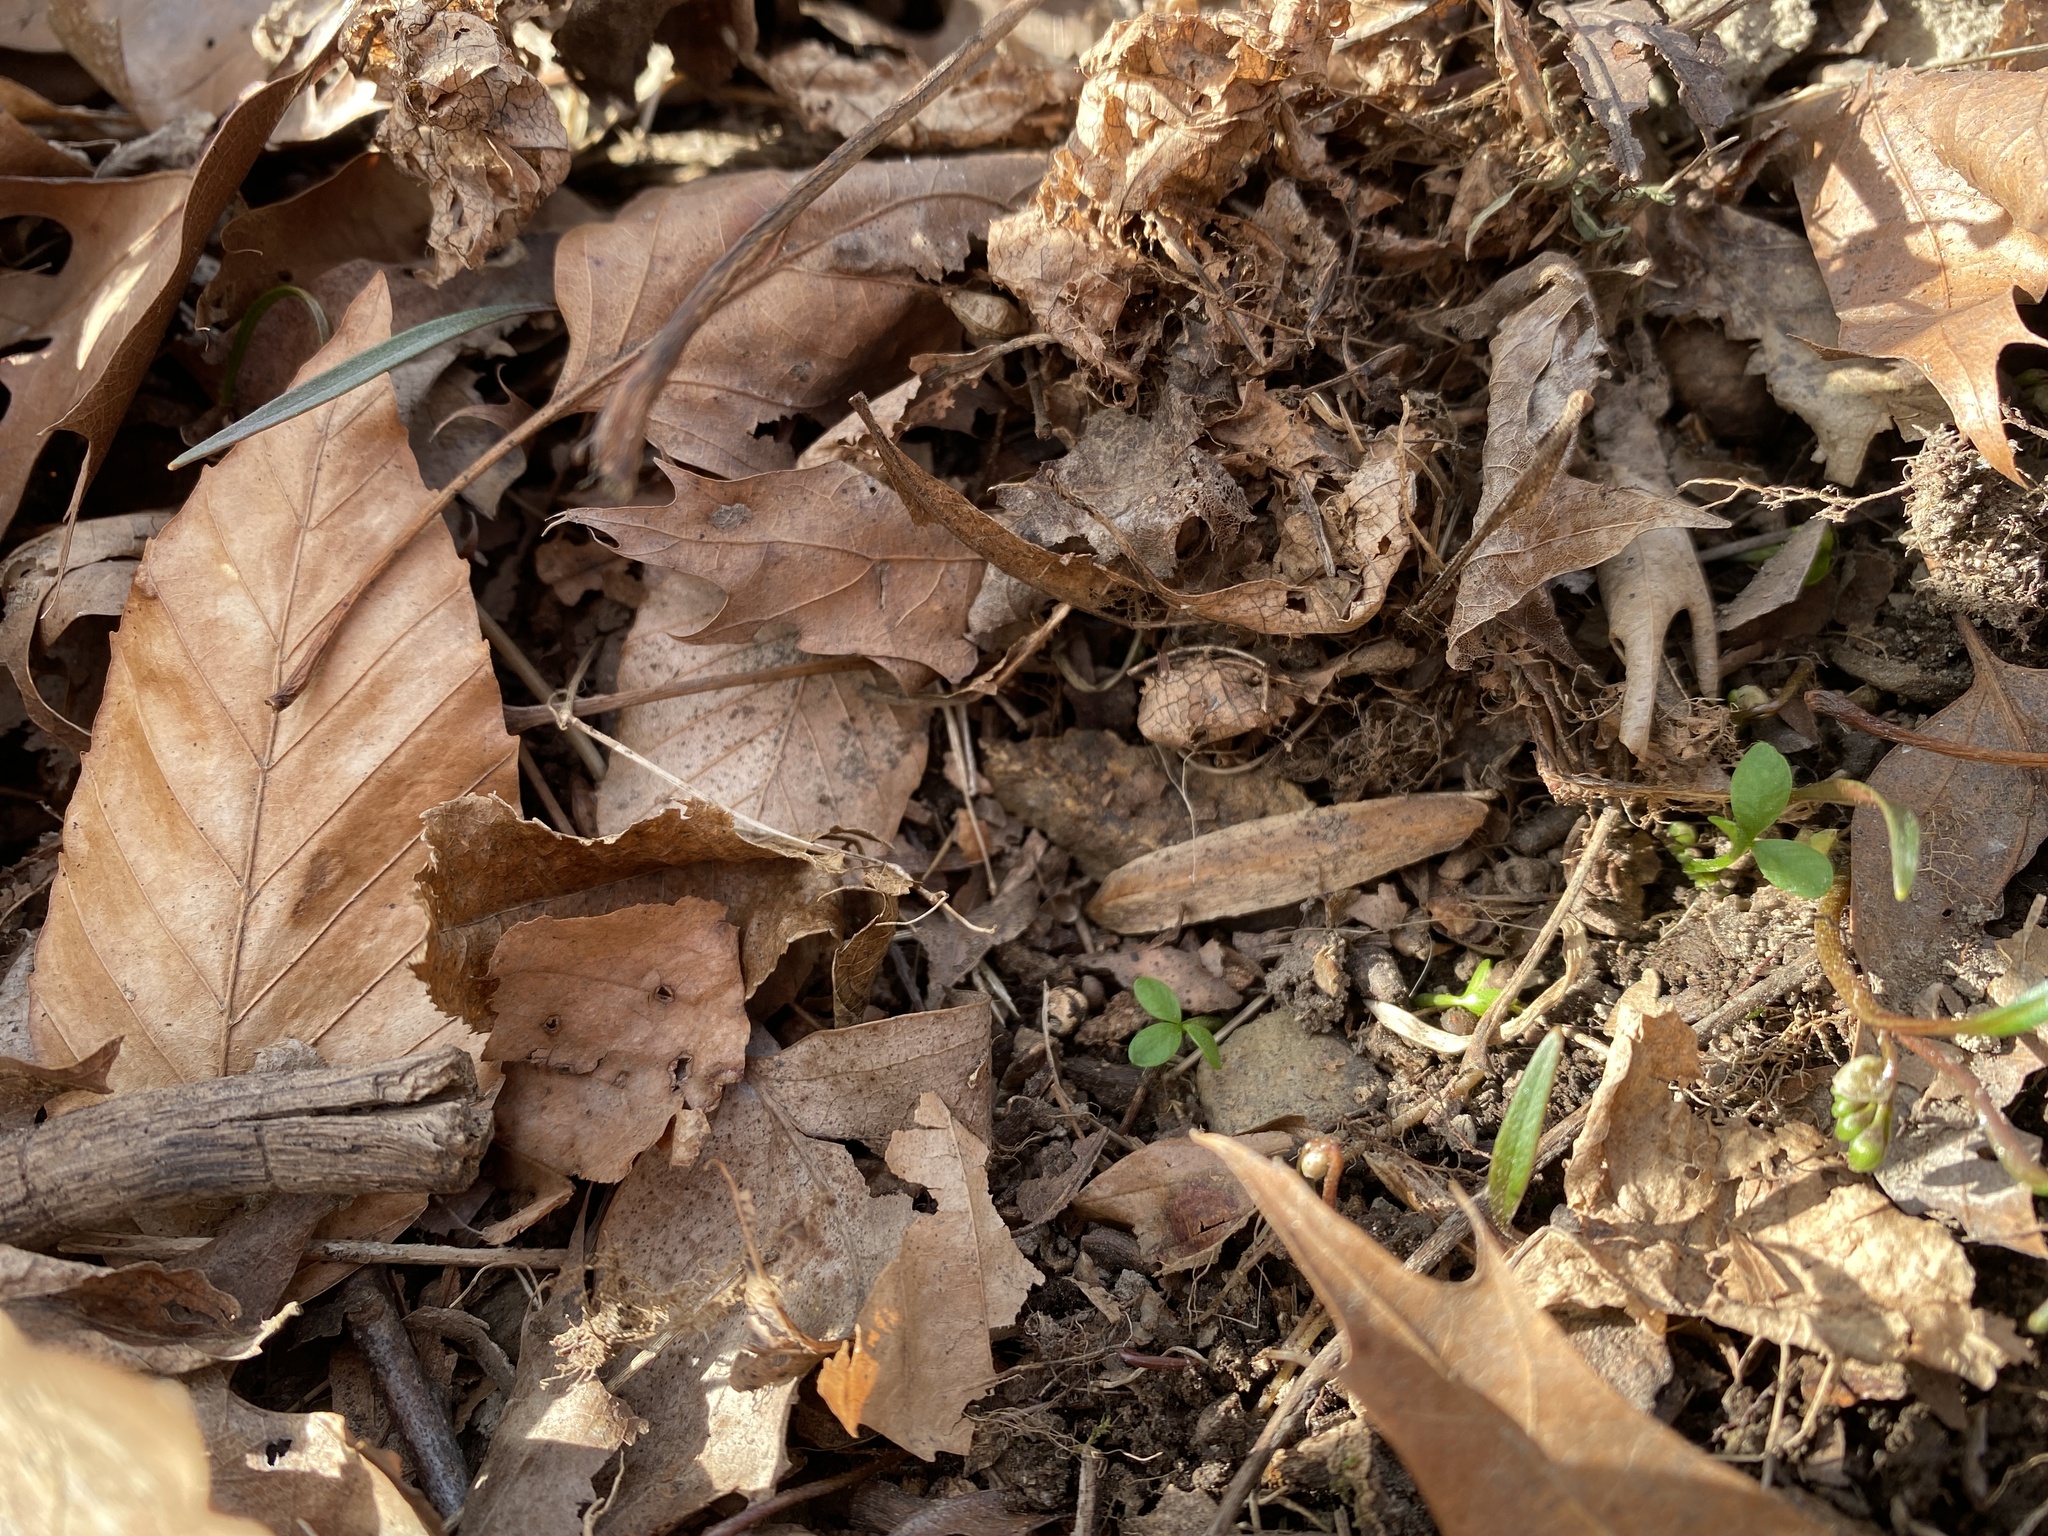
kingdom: Plantae
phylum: Tracheophyta
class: Magnoliopsida
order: Brassicales
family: Limnanthaceae
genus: Floerkea
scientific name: Floerkea proserpinacoides
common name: False mermaid
